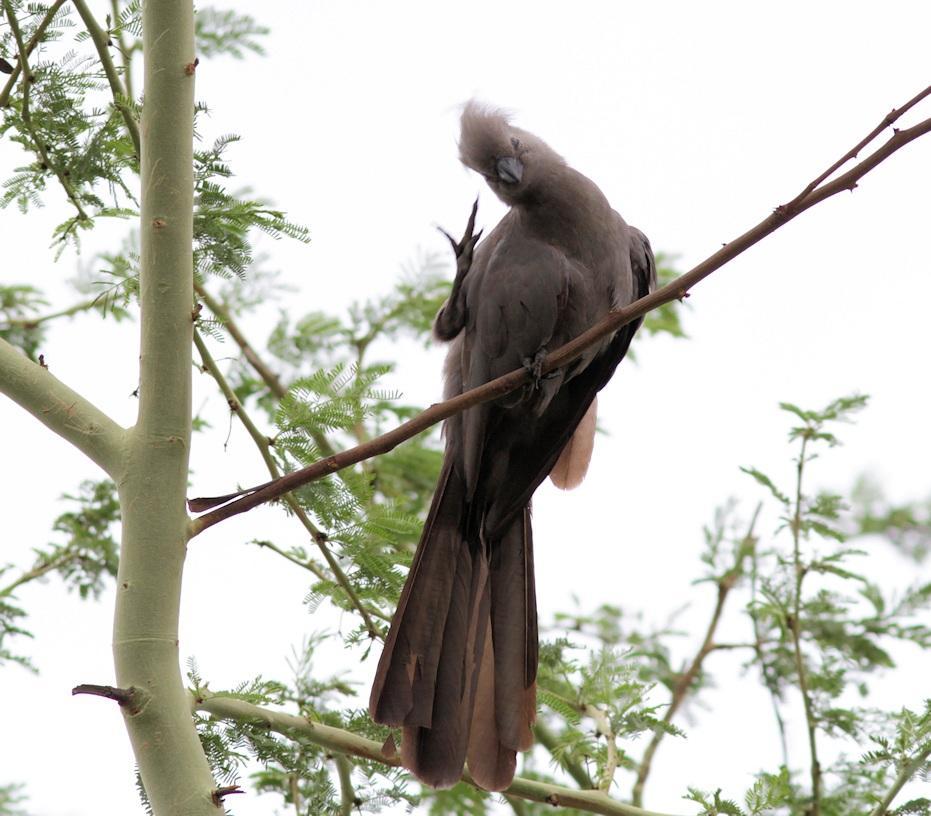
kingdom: Animalia
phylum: Chordata
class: Aves
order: Musophagiformes
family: Musophagidae
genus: Corythaixoides
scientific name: Corythaixoides concolor
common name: Grey go-away-bird
